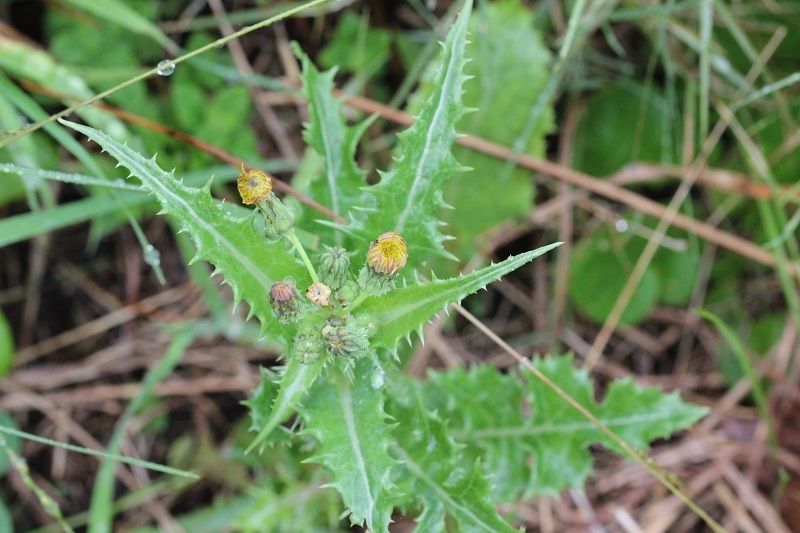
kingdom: Plantae
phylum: Tracheophyta
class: Magnoliopsida
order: Asterales
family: Asteraceae
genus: Sonchus
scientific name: Sonchus asper
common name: Prickly sow-thistle
